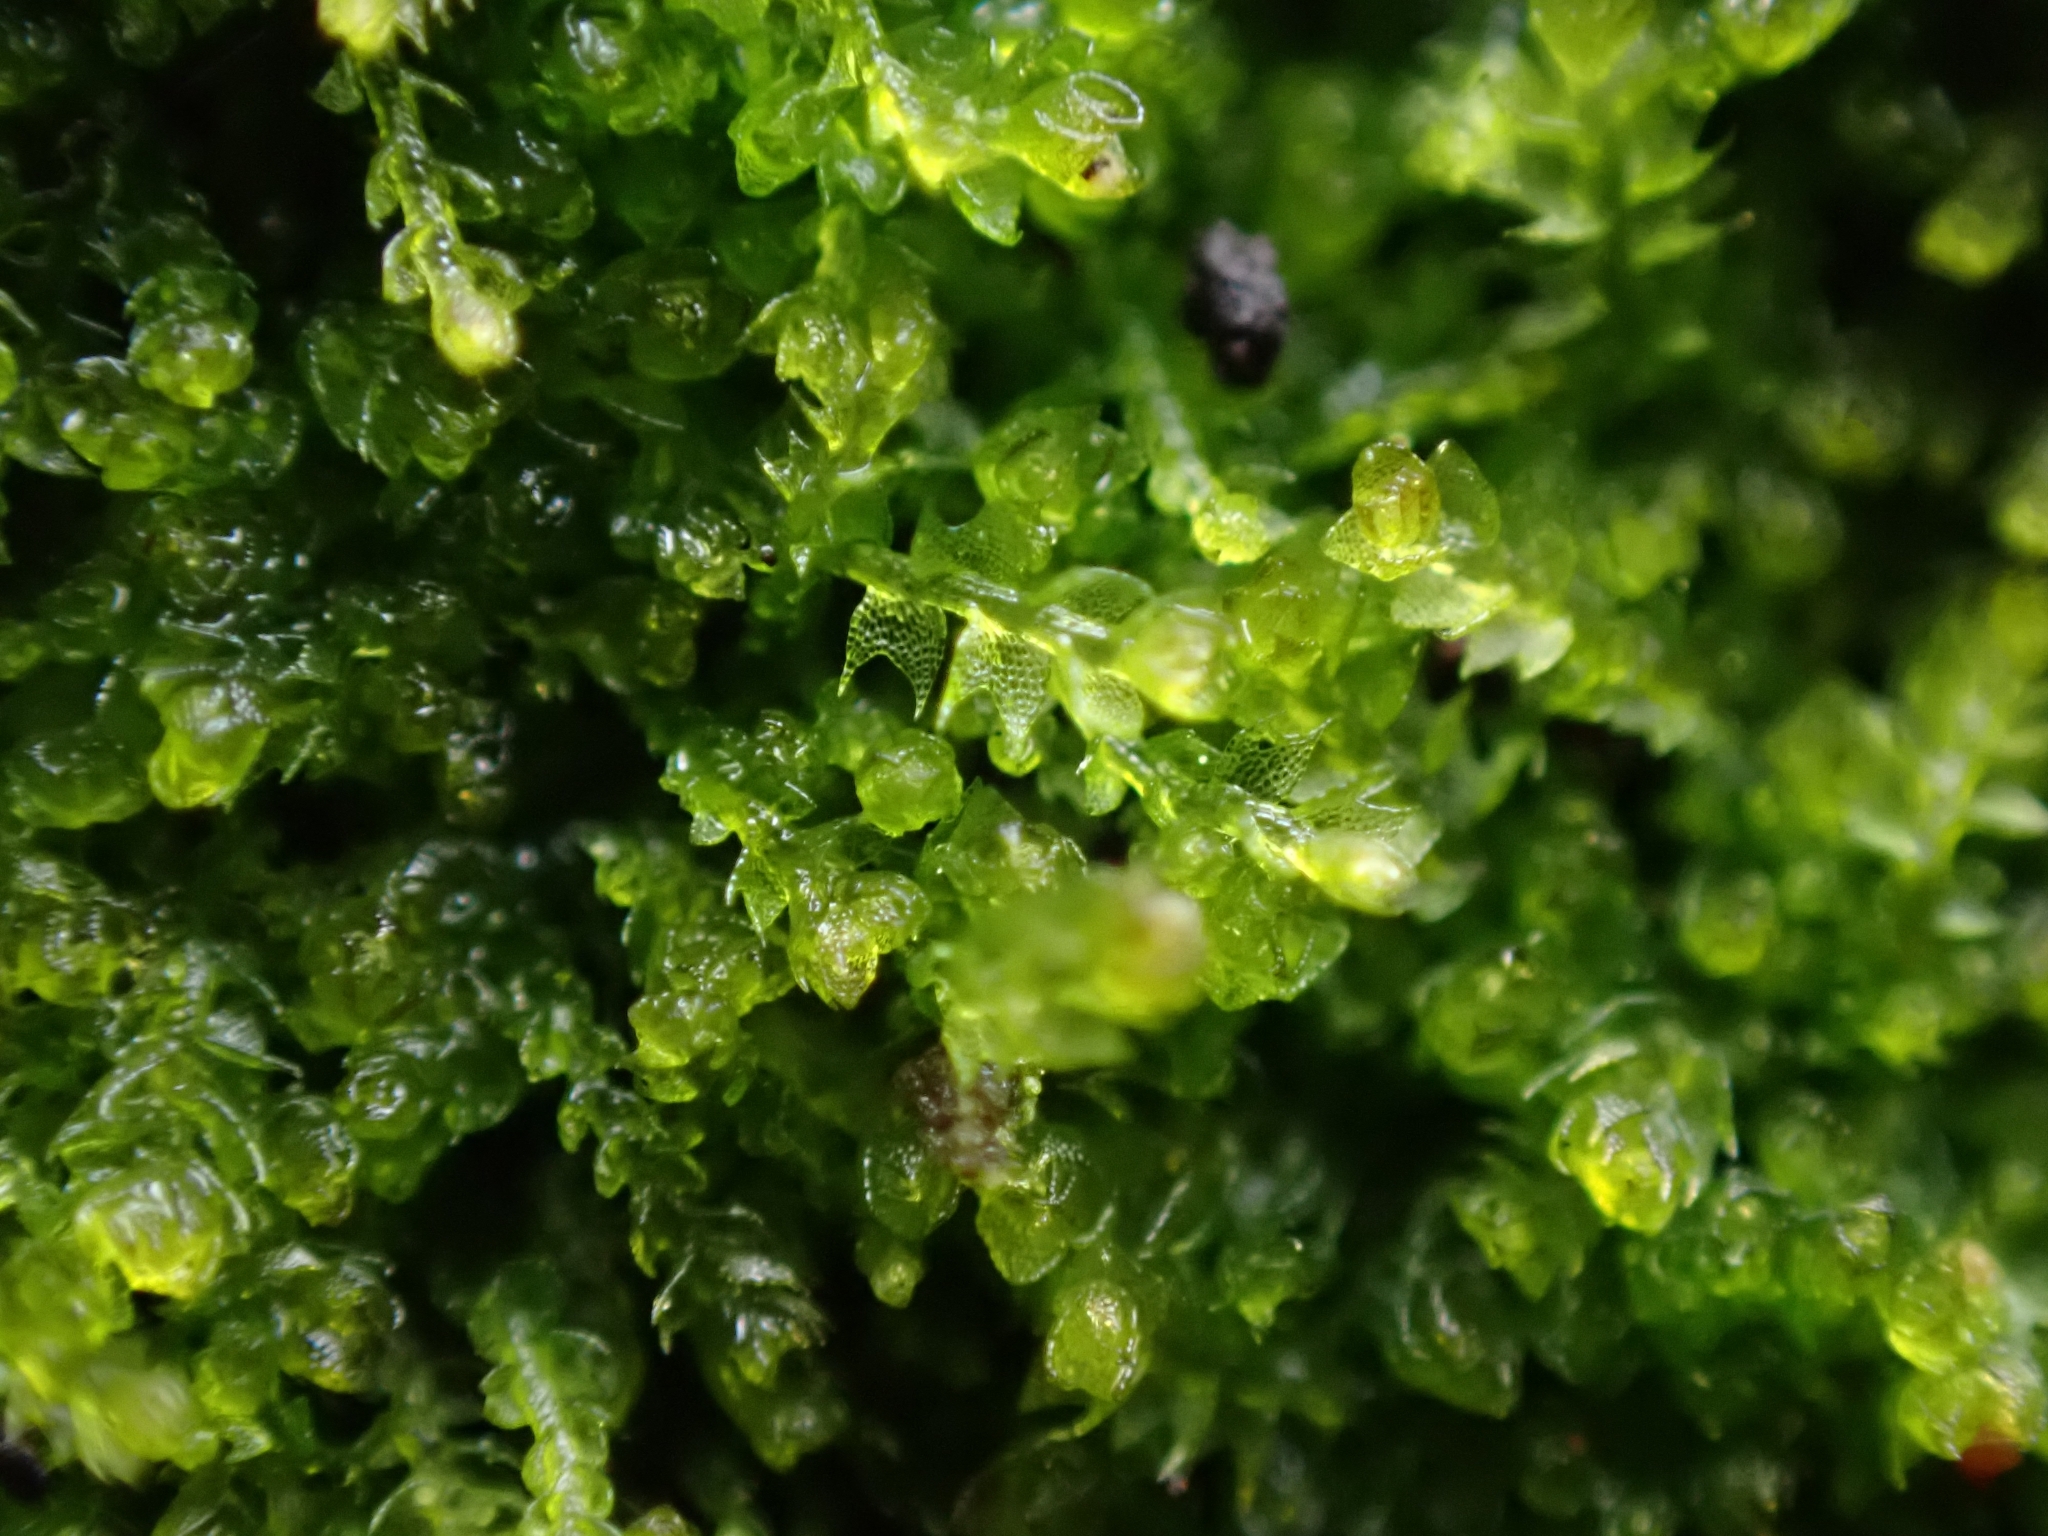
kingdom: Plantae
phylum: Marchantiophyta
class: Jungermanniopsida
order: Jungermanniales
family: Cephaloziaceae
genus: Cephalozia
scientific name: Cephalozia bicuspidata
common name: Two-horned pincerwort
